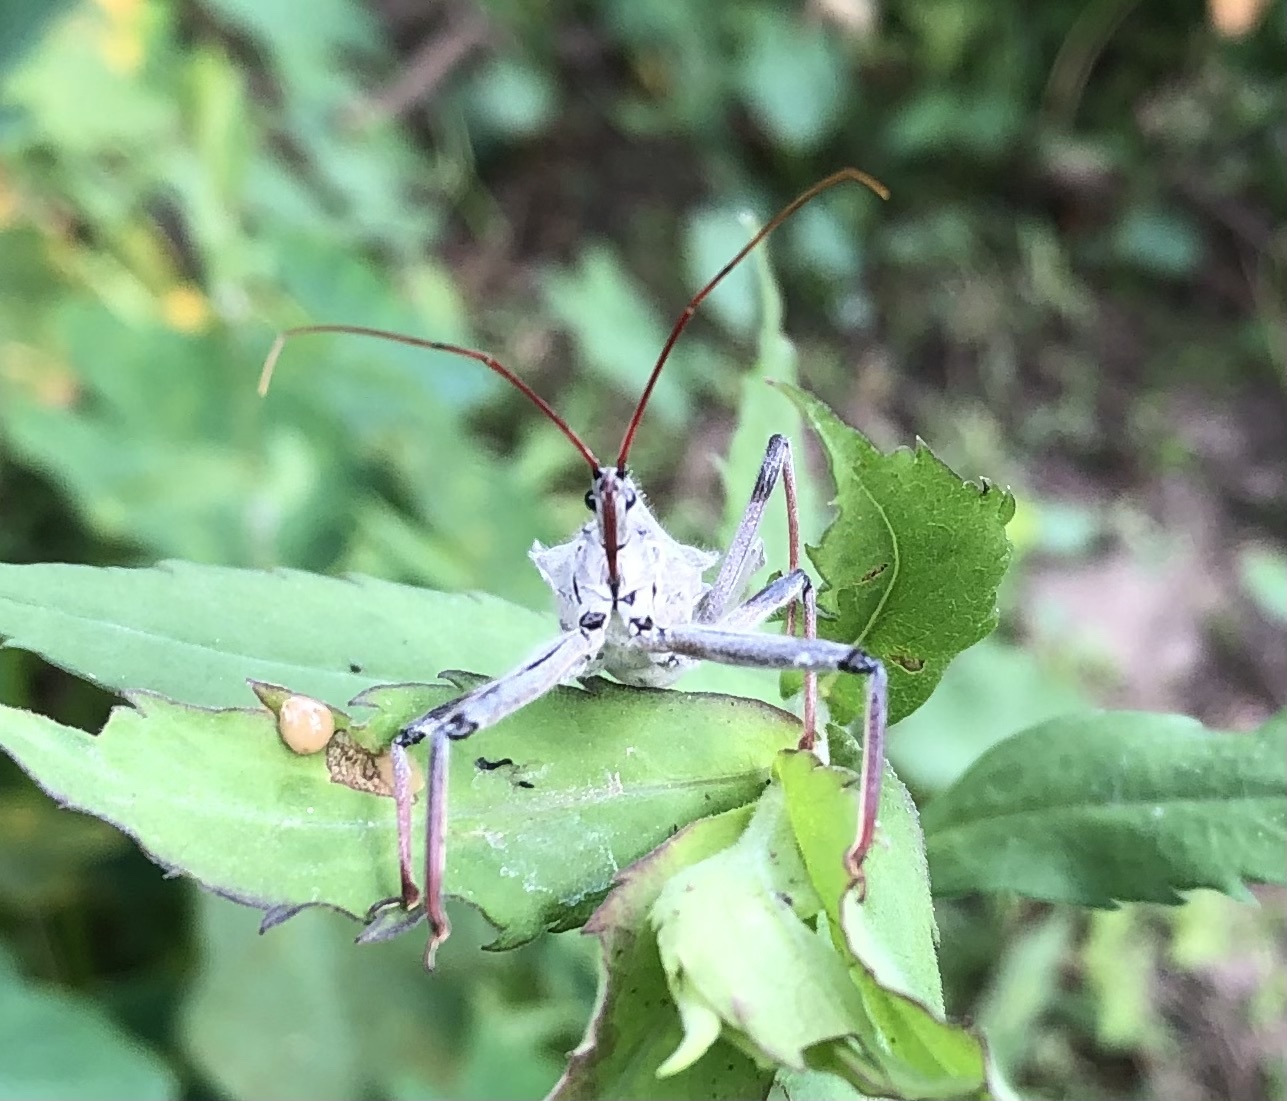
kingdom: Animalia
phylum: Arthropoda
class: Insecta
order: Hemiptera
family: Reduviidae
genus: Arilus
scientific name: Arilus cristatus
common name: North american wheel bug
